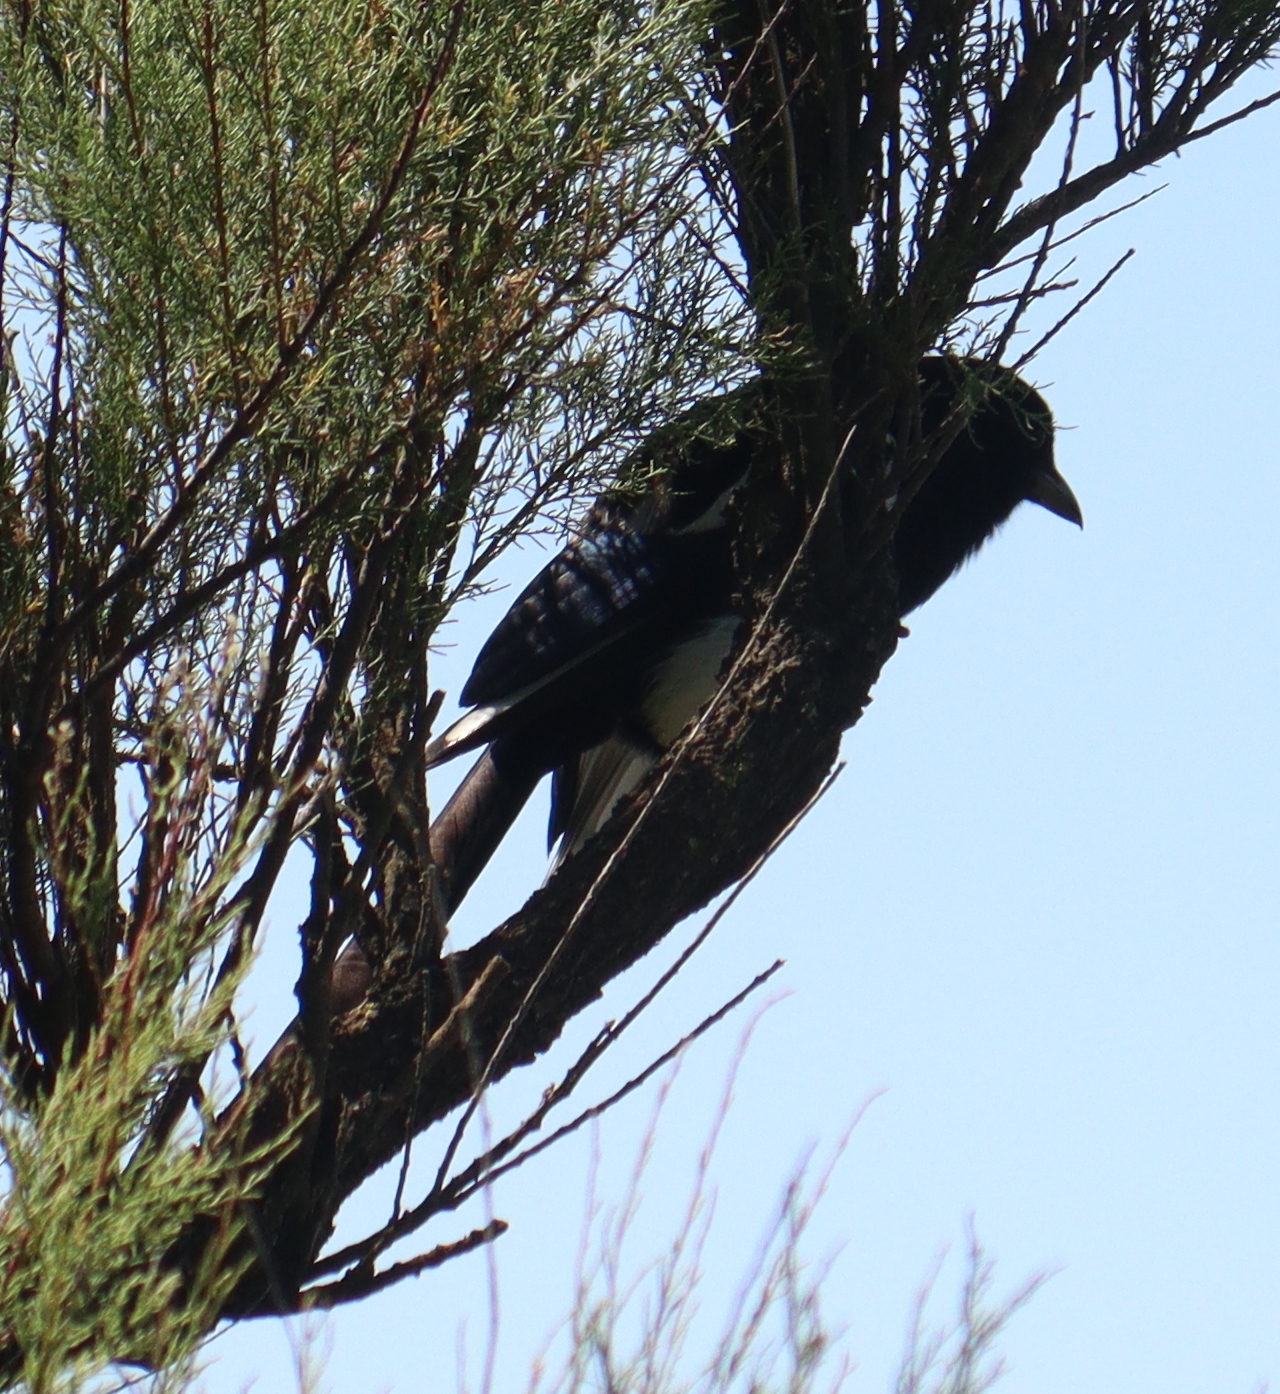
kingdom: Animalia
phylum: Chordata
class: Aves
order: Passeriformes
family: Corvidae
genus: Pica
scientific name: Pica pica
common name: Eurasian magpie
